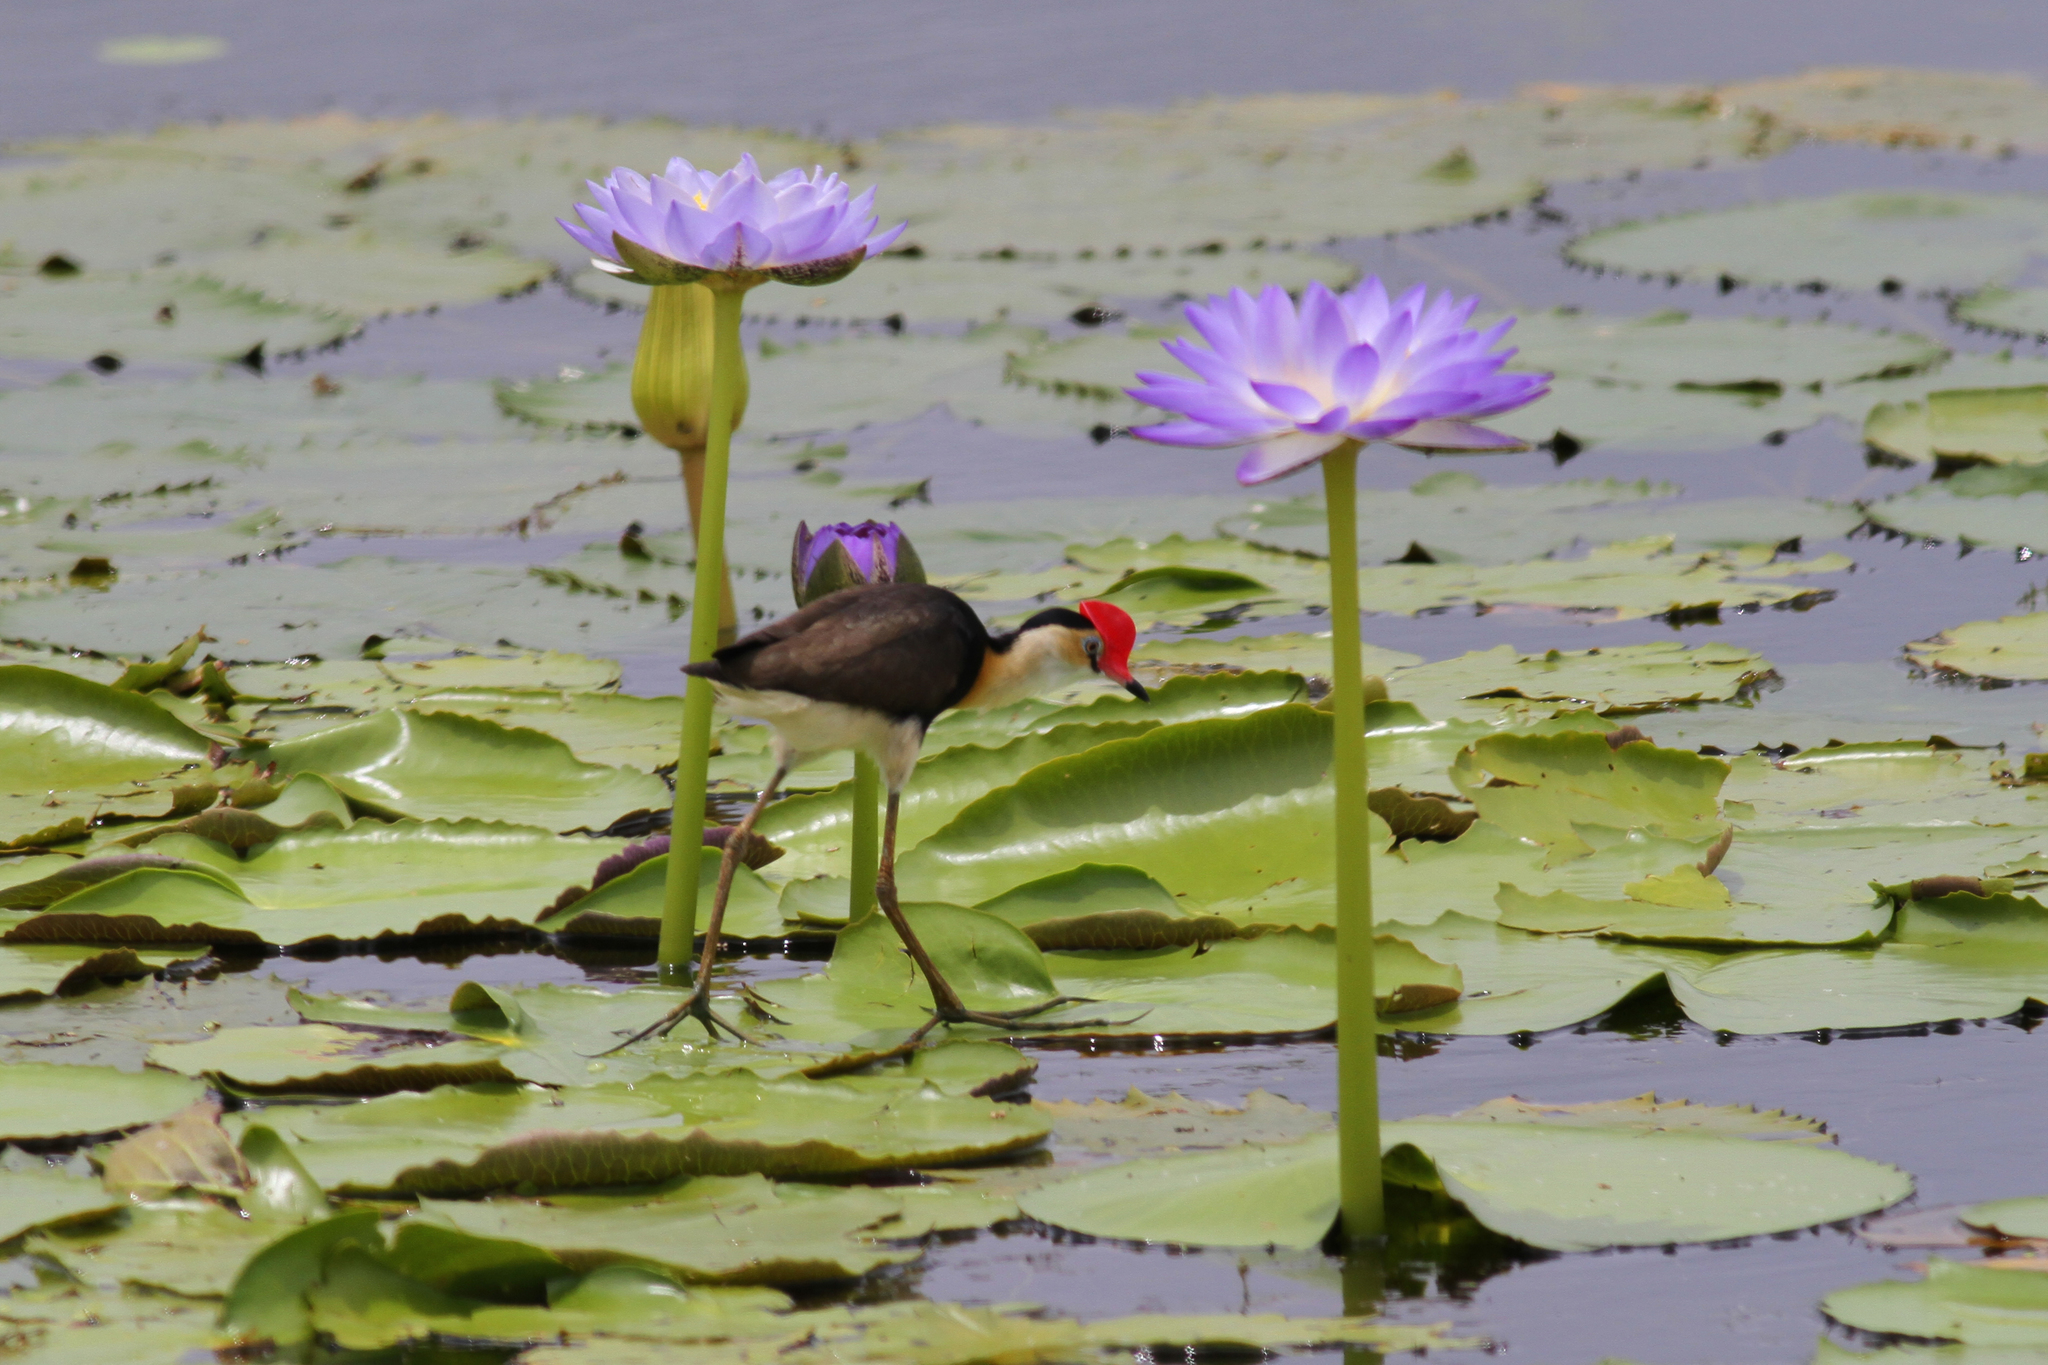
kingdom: Animalia
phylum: Chordata
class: Aves
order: Charadriiformes
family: Jacanidae
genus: Irediparra
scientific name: Irediparra gallinacea
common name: Comb-crested jacana
